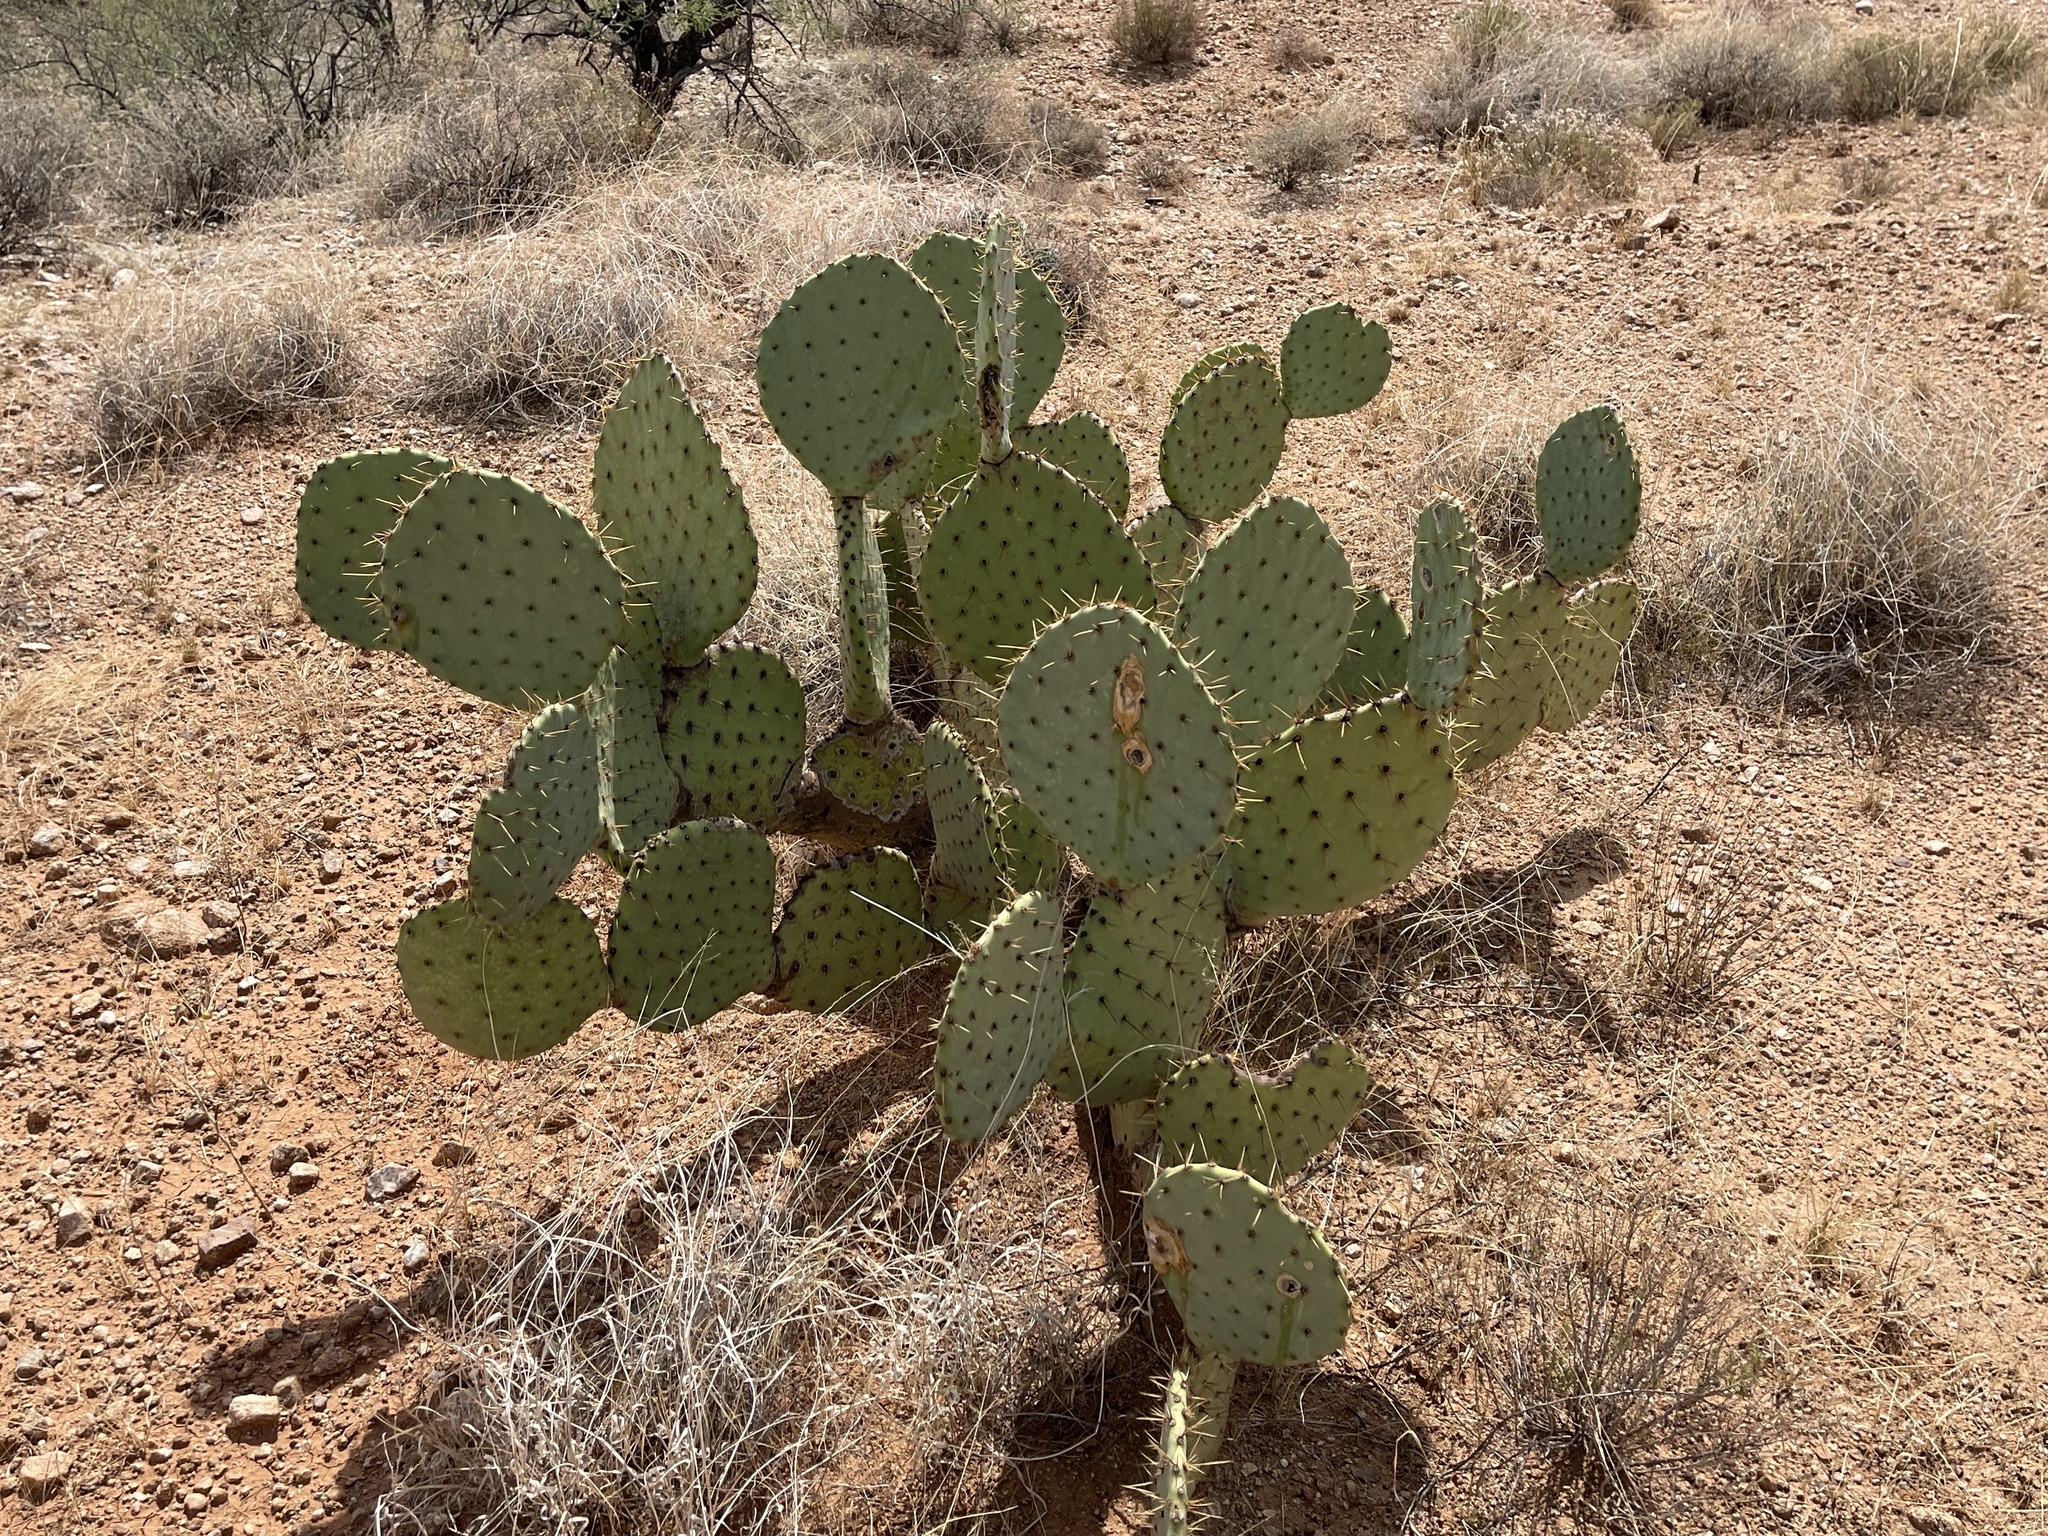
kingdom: Plantae
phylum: Tracheophyta
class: Magnoliopsida
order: Caryophyllales
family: Cactaceae
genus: Opuntia
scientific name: Opuntia engelmannii
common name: Cactus-apple
